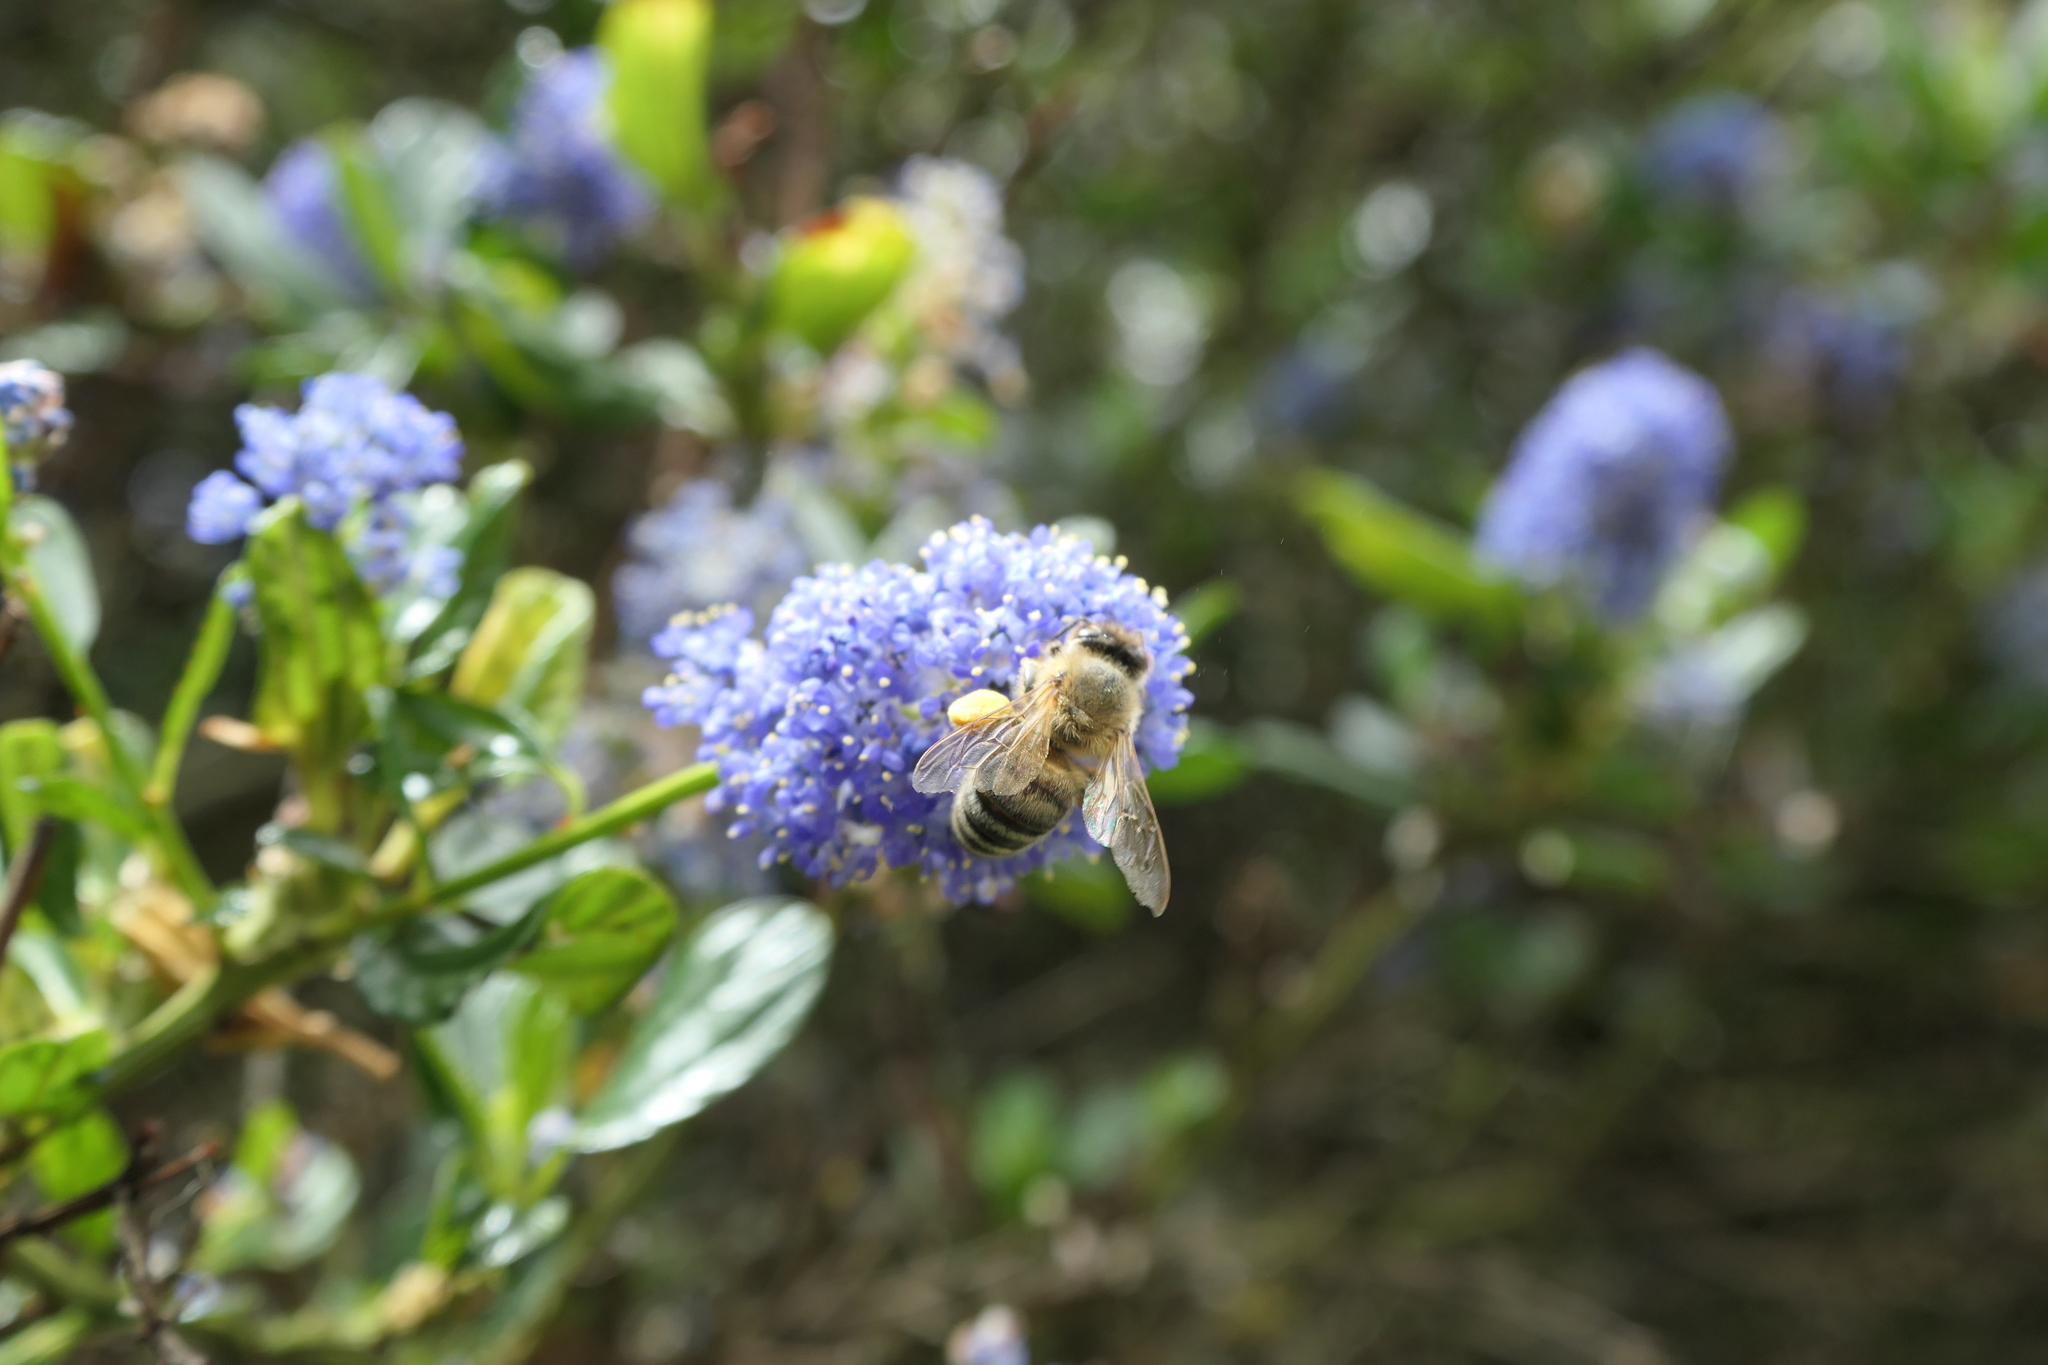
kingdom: Animalia
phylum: Arthropoda
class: Insecta
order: Hymenoptera
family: Apidae
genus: Apis
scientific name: Apis mellifera
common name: Honey bee
